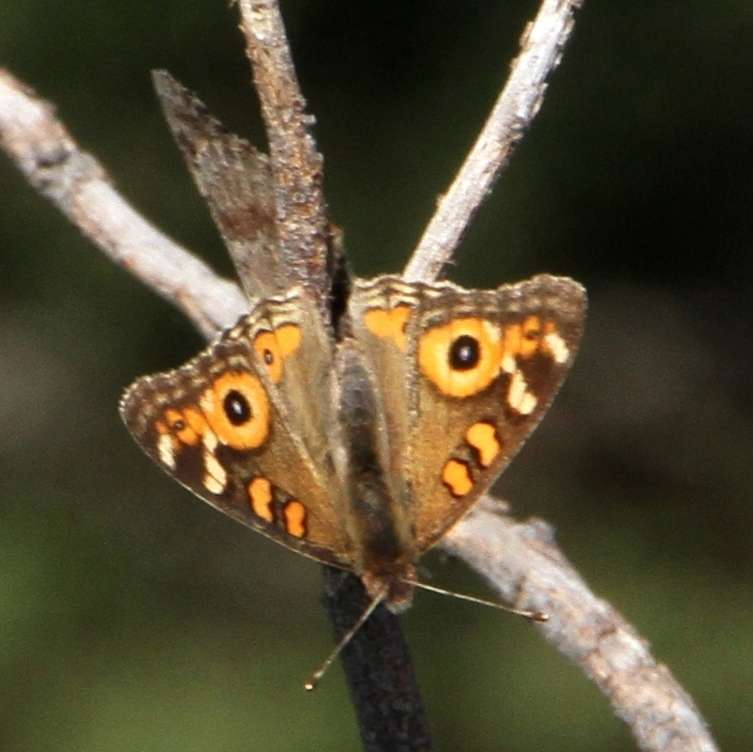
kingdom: Animalia
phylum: Arthropoda
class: Insecta
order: Lepidoptera
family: Nymphalidae
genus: Junonia
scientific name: Junonia villida
